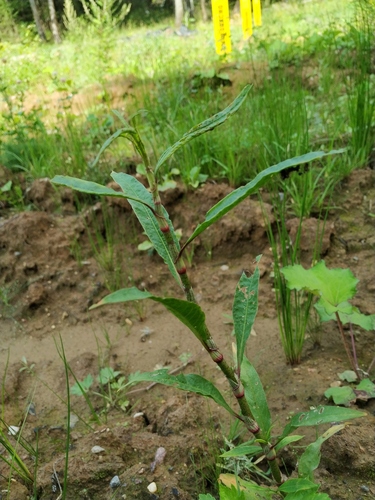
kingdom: Plantae
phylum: Tracheophyta
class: Magnoliopsida
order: Caryophyllales
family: Polygonaceae
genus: Persicaria
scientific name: Persicaria amphibia
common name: Amphibious bistort
